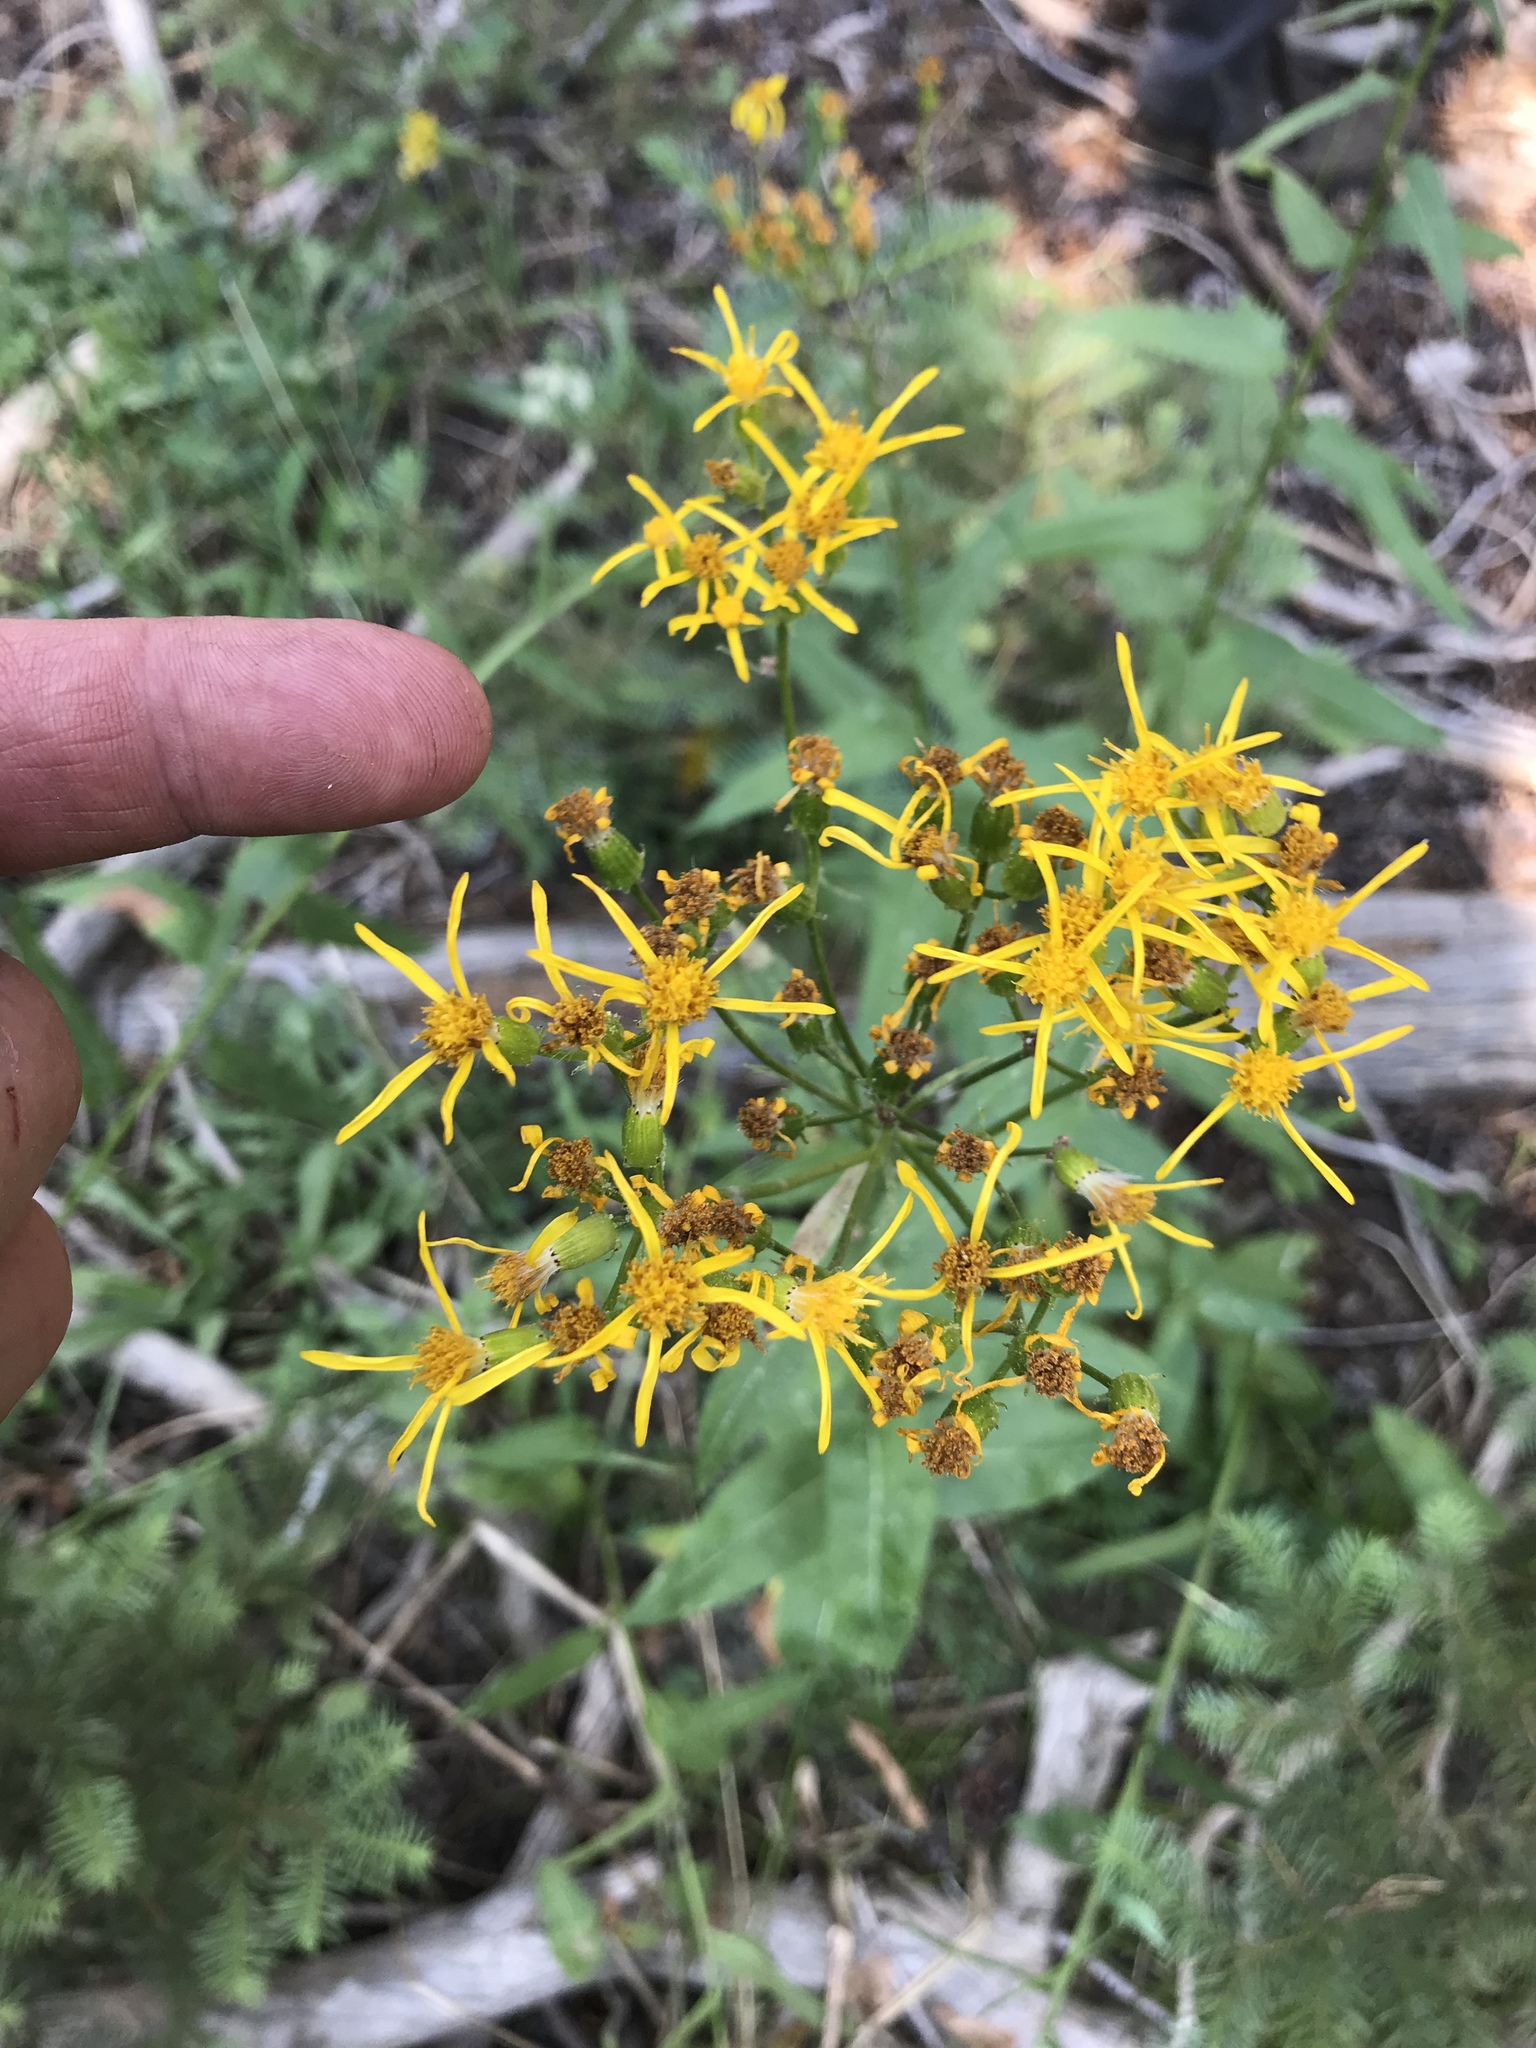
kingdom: Plantae
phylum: Tracheophyta
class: Magnoliopsida
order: Asterales
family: Asteraceae
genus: Senecio
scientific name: Senecio triangularis
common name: Arrowleaf butterweed
